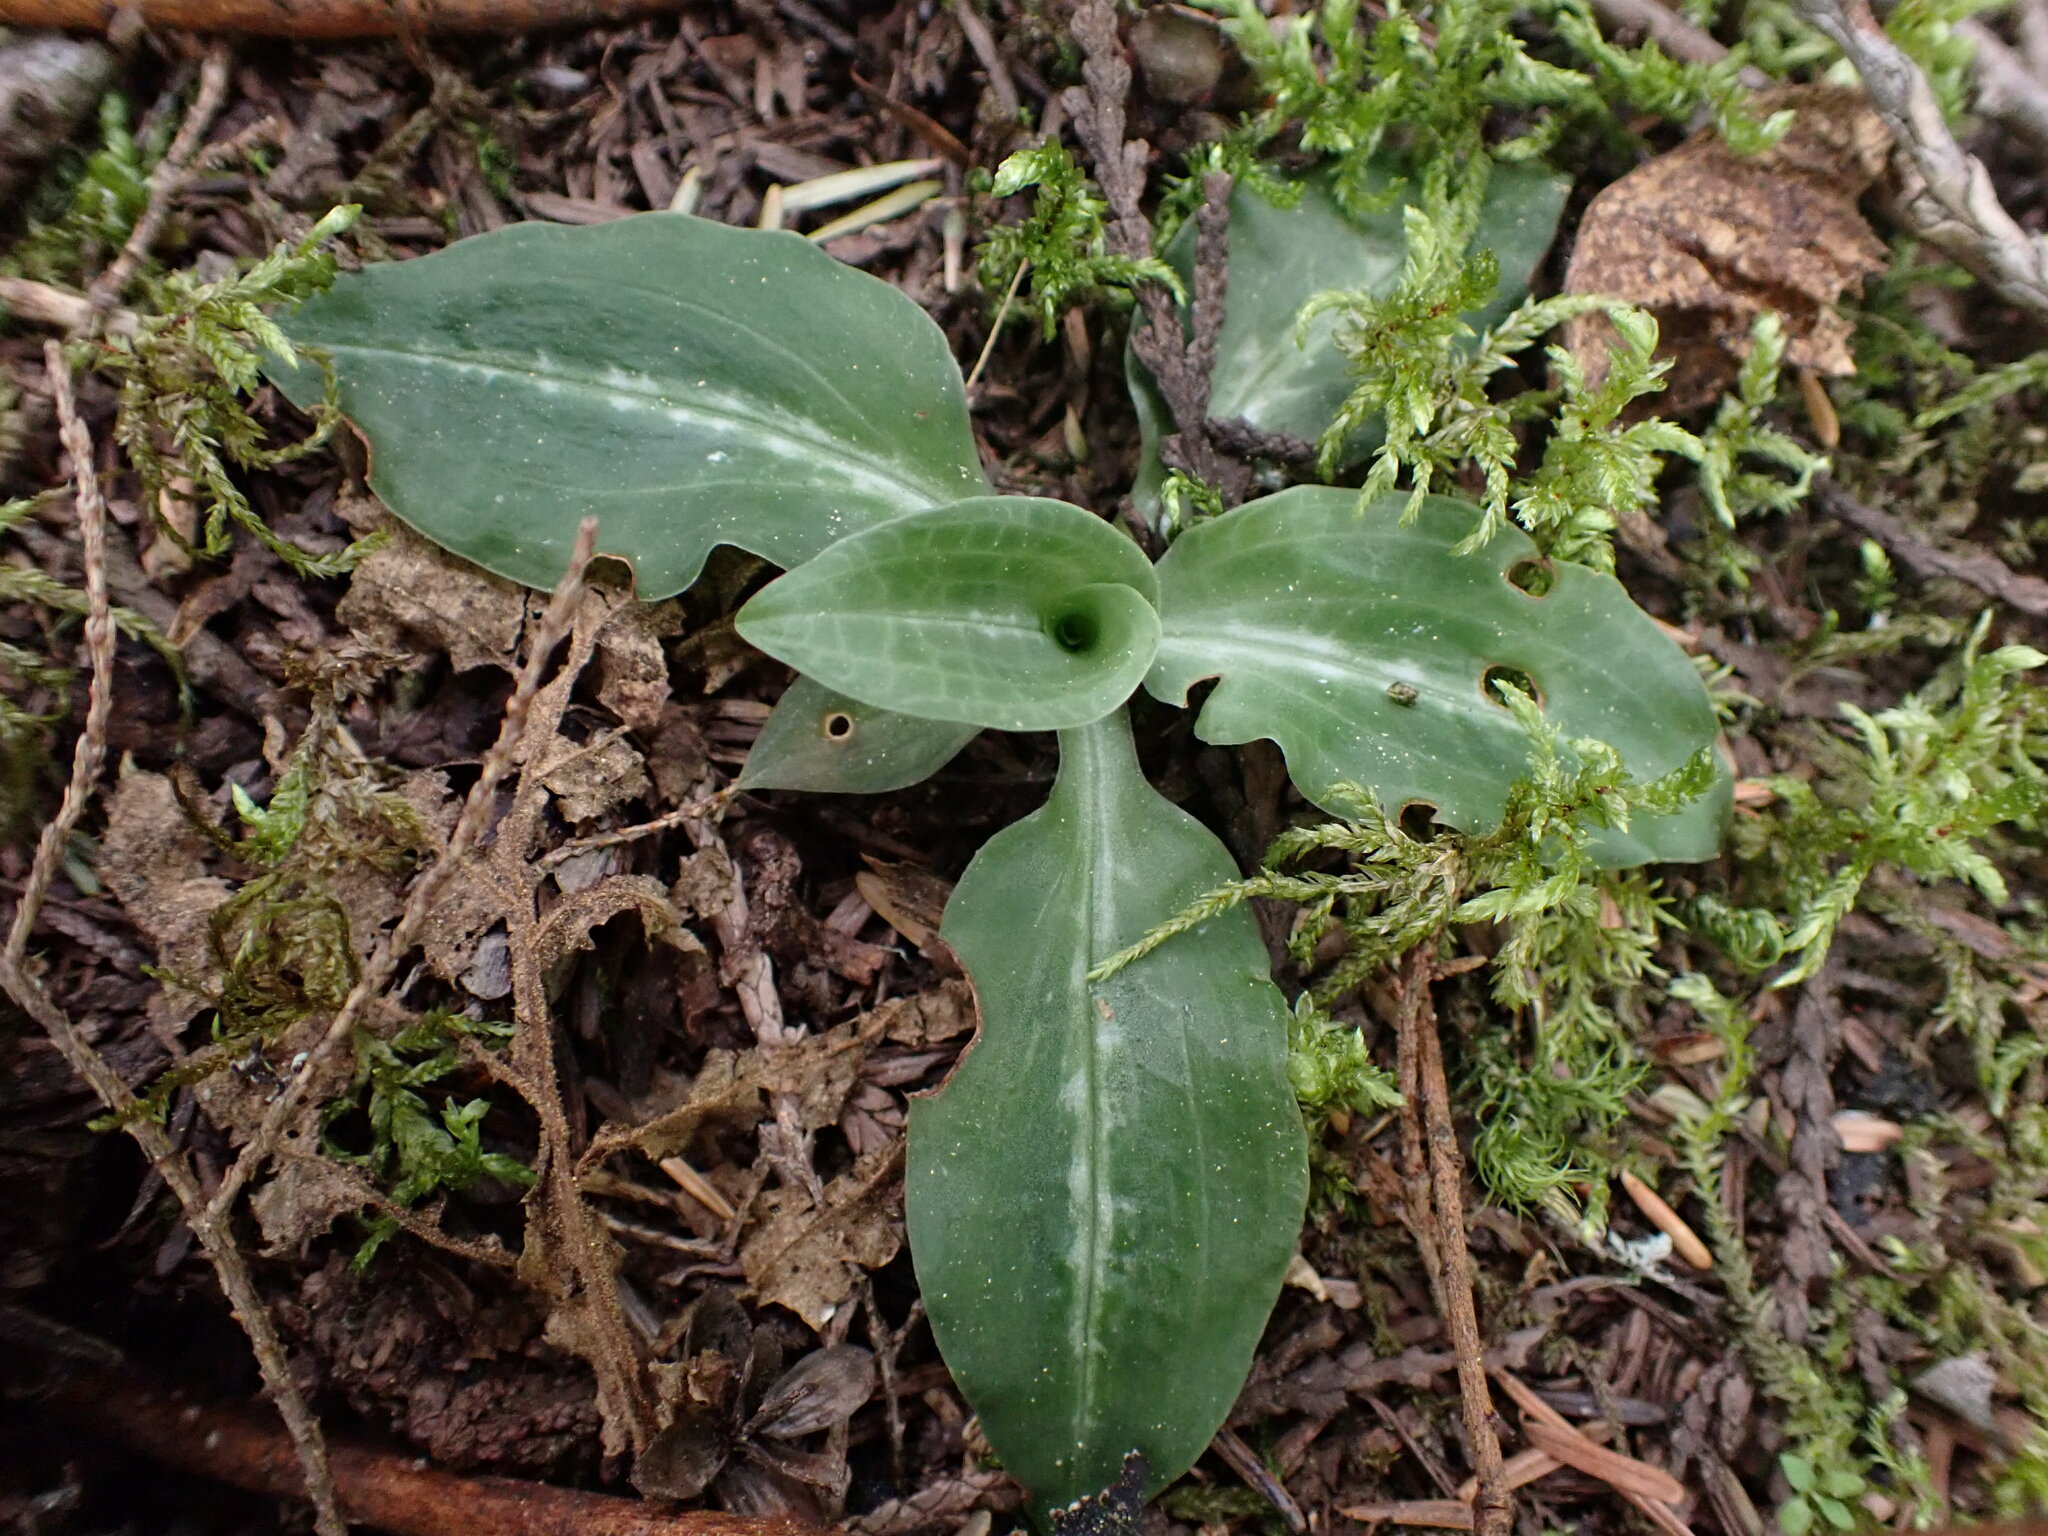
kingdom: Plantae
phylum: Tracheophyta
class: Liliopsida
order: Asparagales
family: Orchidaceae
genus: Goodyera
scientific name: Goodyera oblongifolia
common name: Giant rattlesnake-plantain
